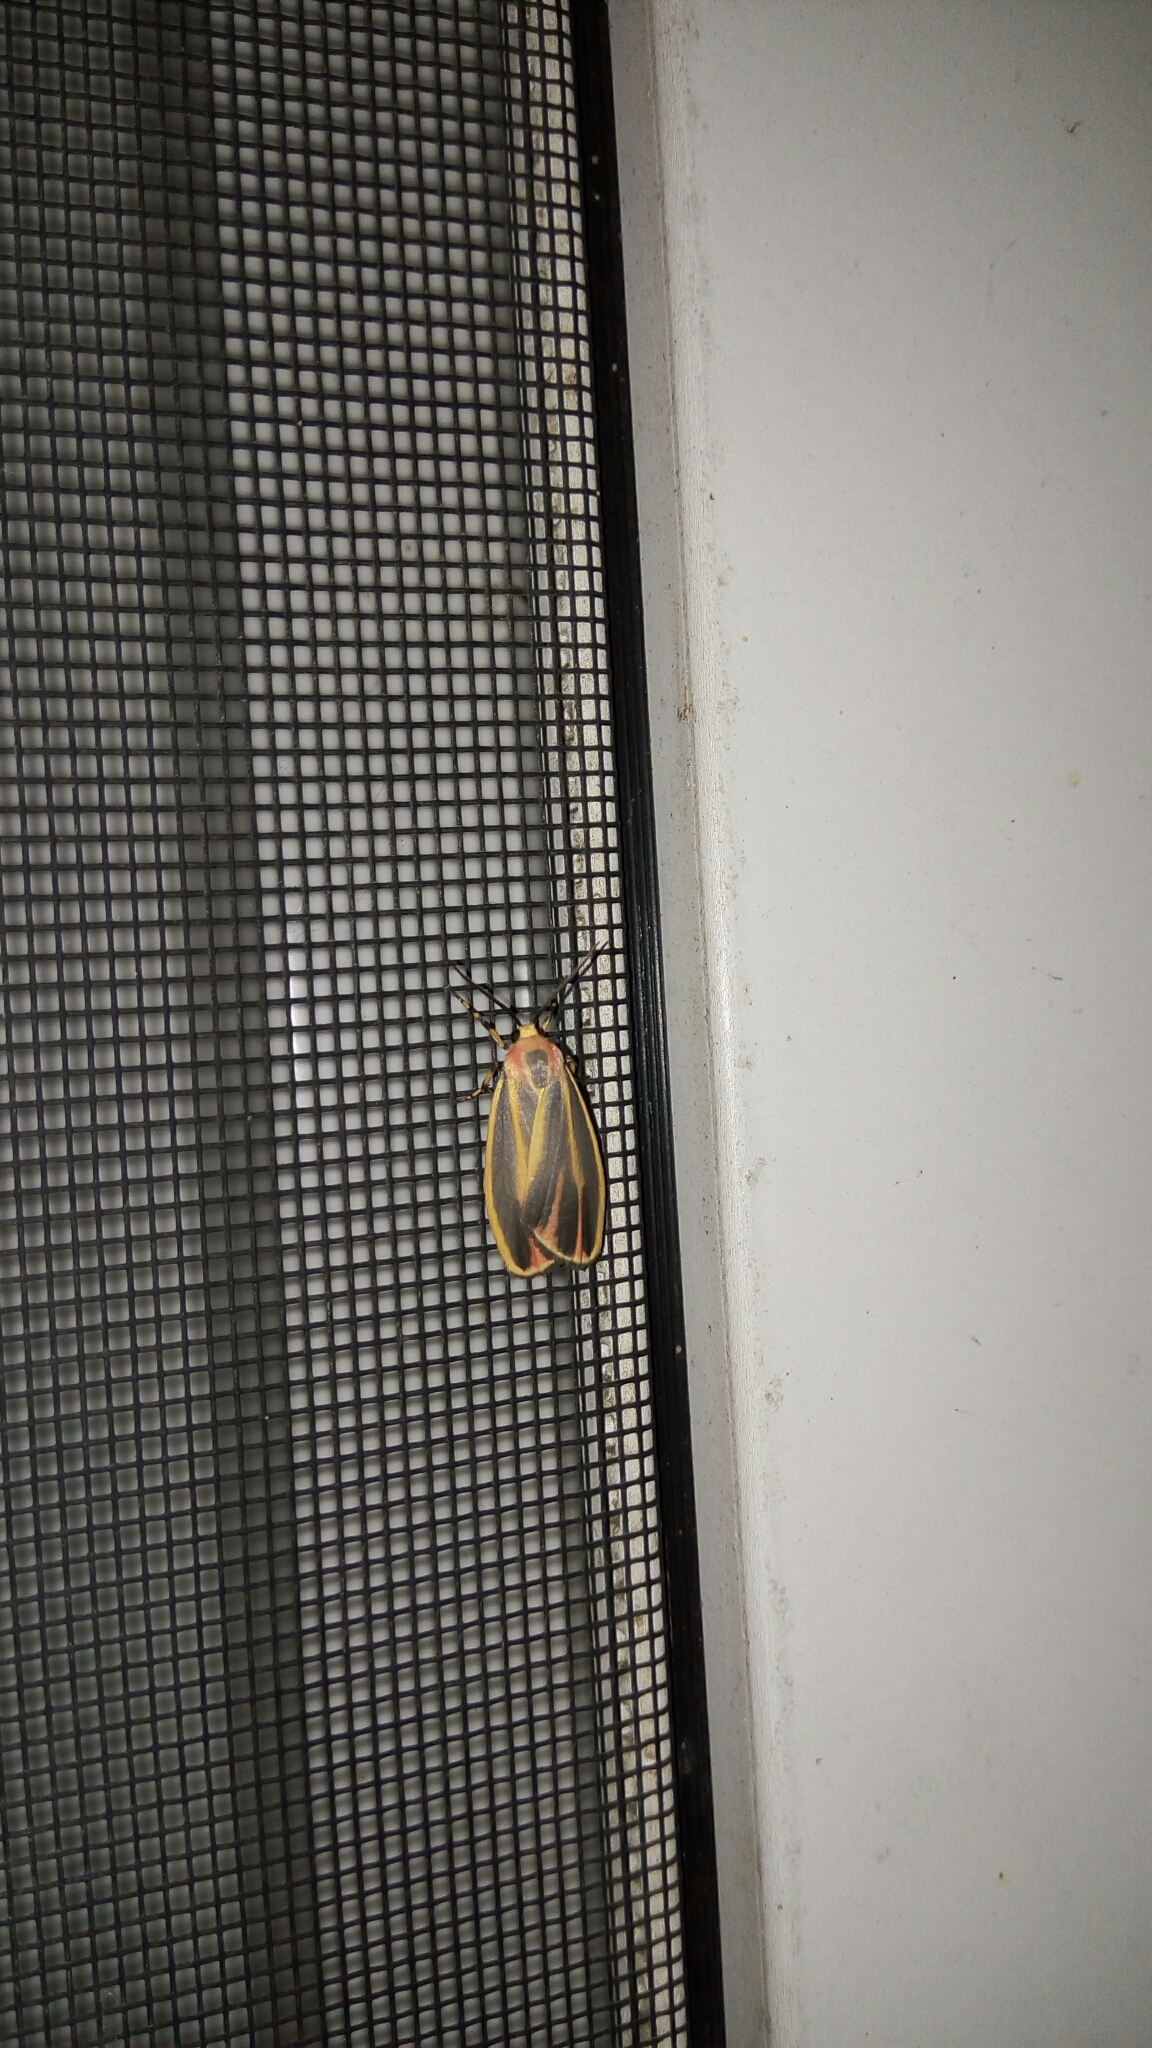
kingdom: Animalia
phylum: Arthropoda
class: Insecta
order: Lepidoptera
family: Erebidae
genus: Hypoprepia
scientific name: Hypoprepia fucosa
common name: Painted lichen moth
